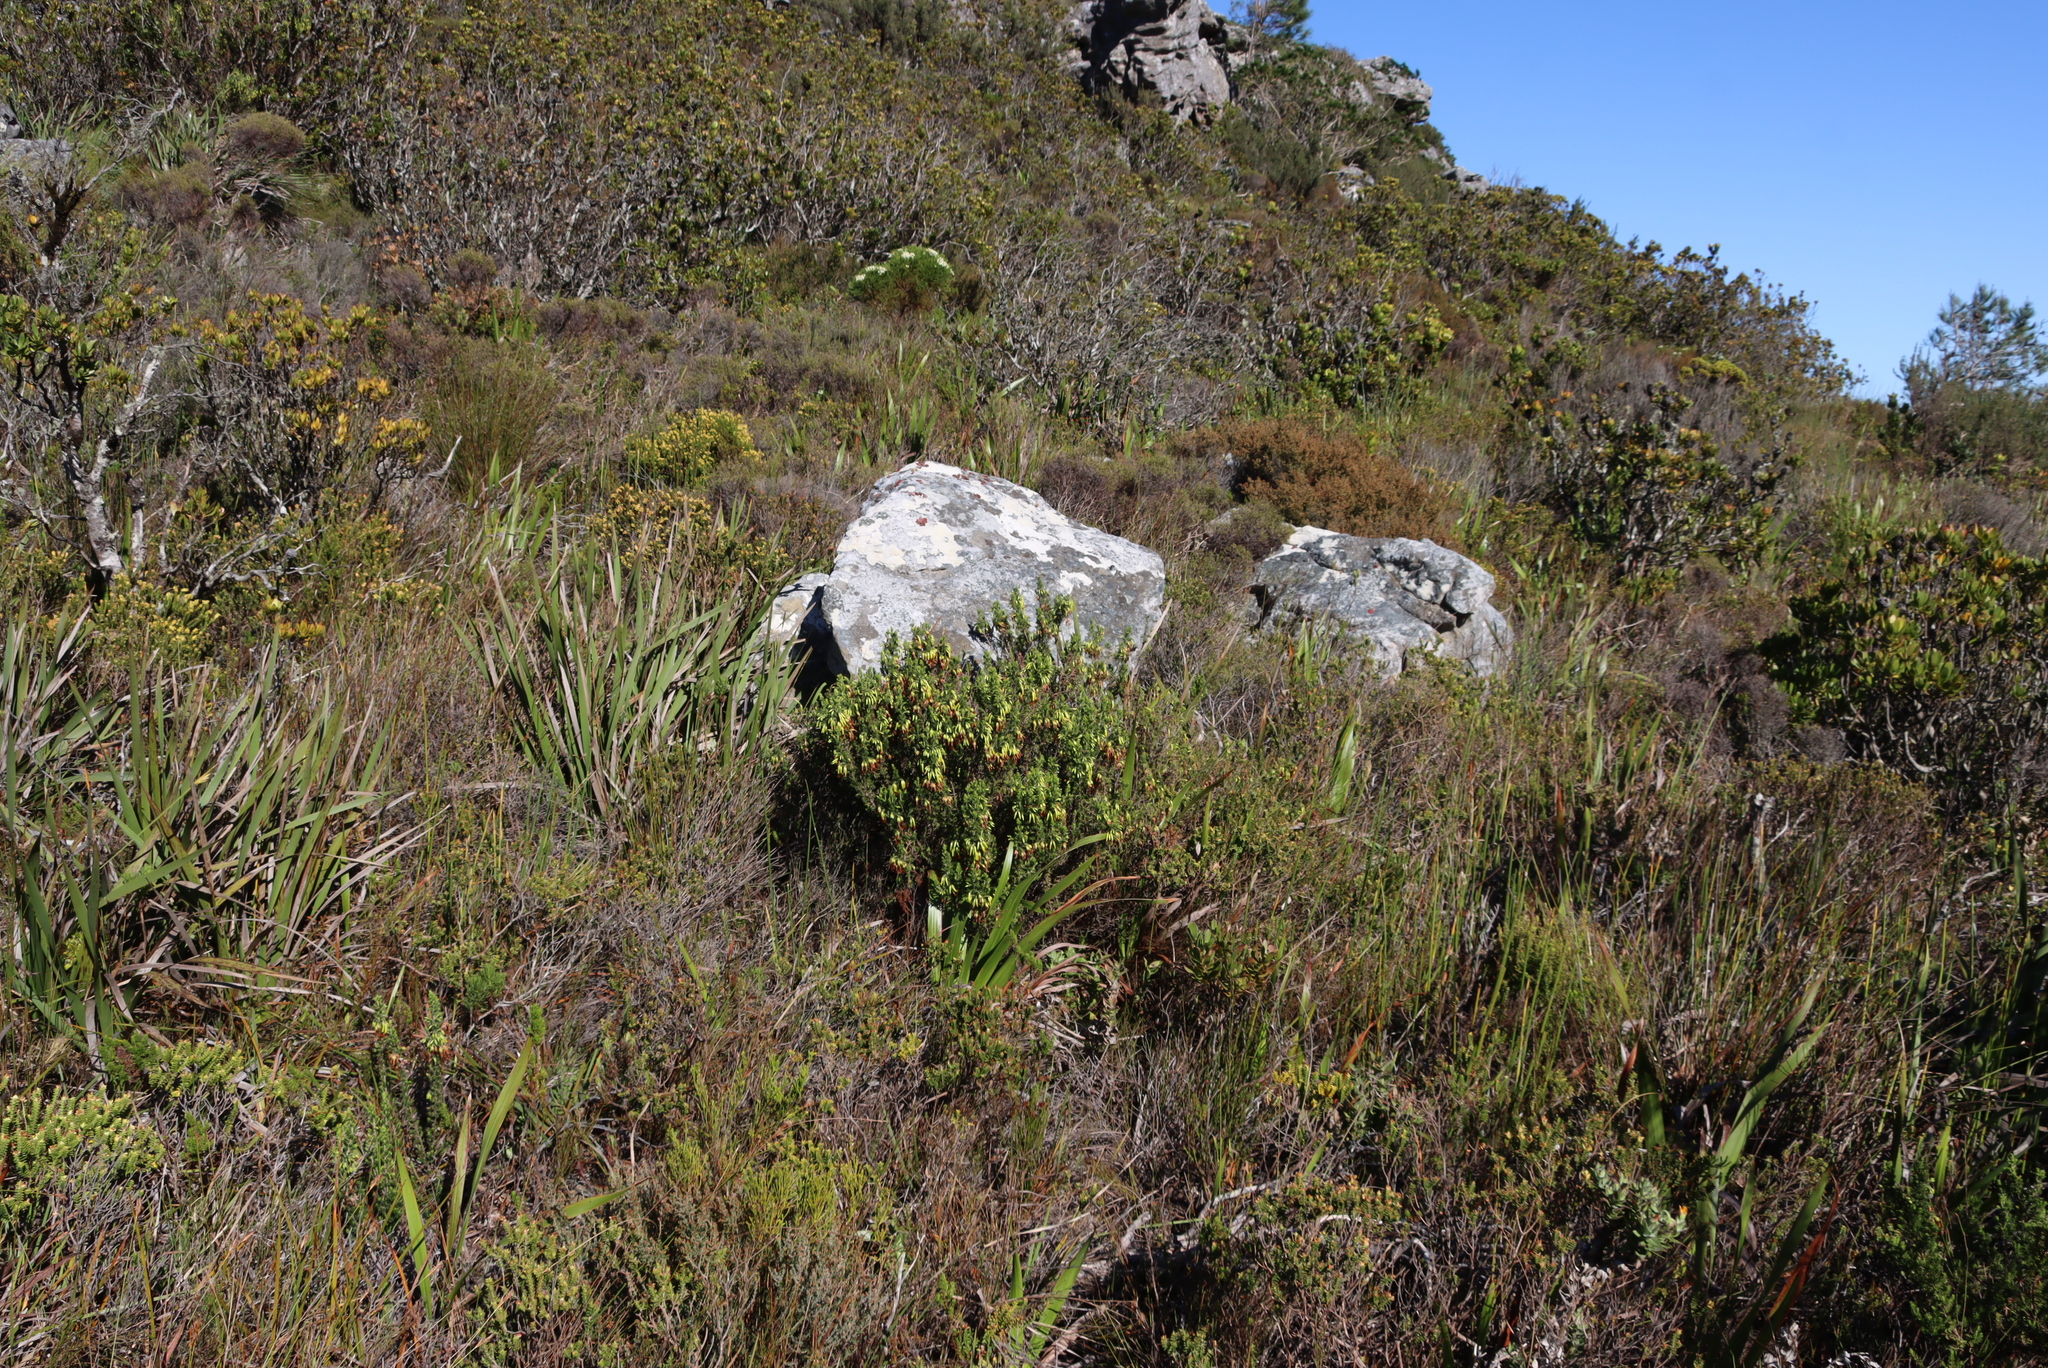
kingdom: Plantae
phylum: Tracheophyta
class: Magnoliopsida
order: Ericales
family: Ericaceae
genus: Erica
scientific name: Erica coccinea
